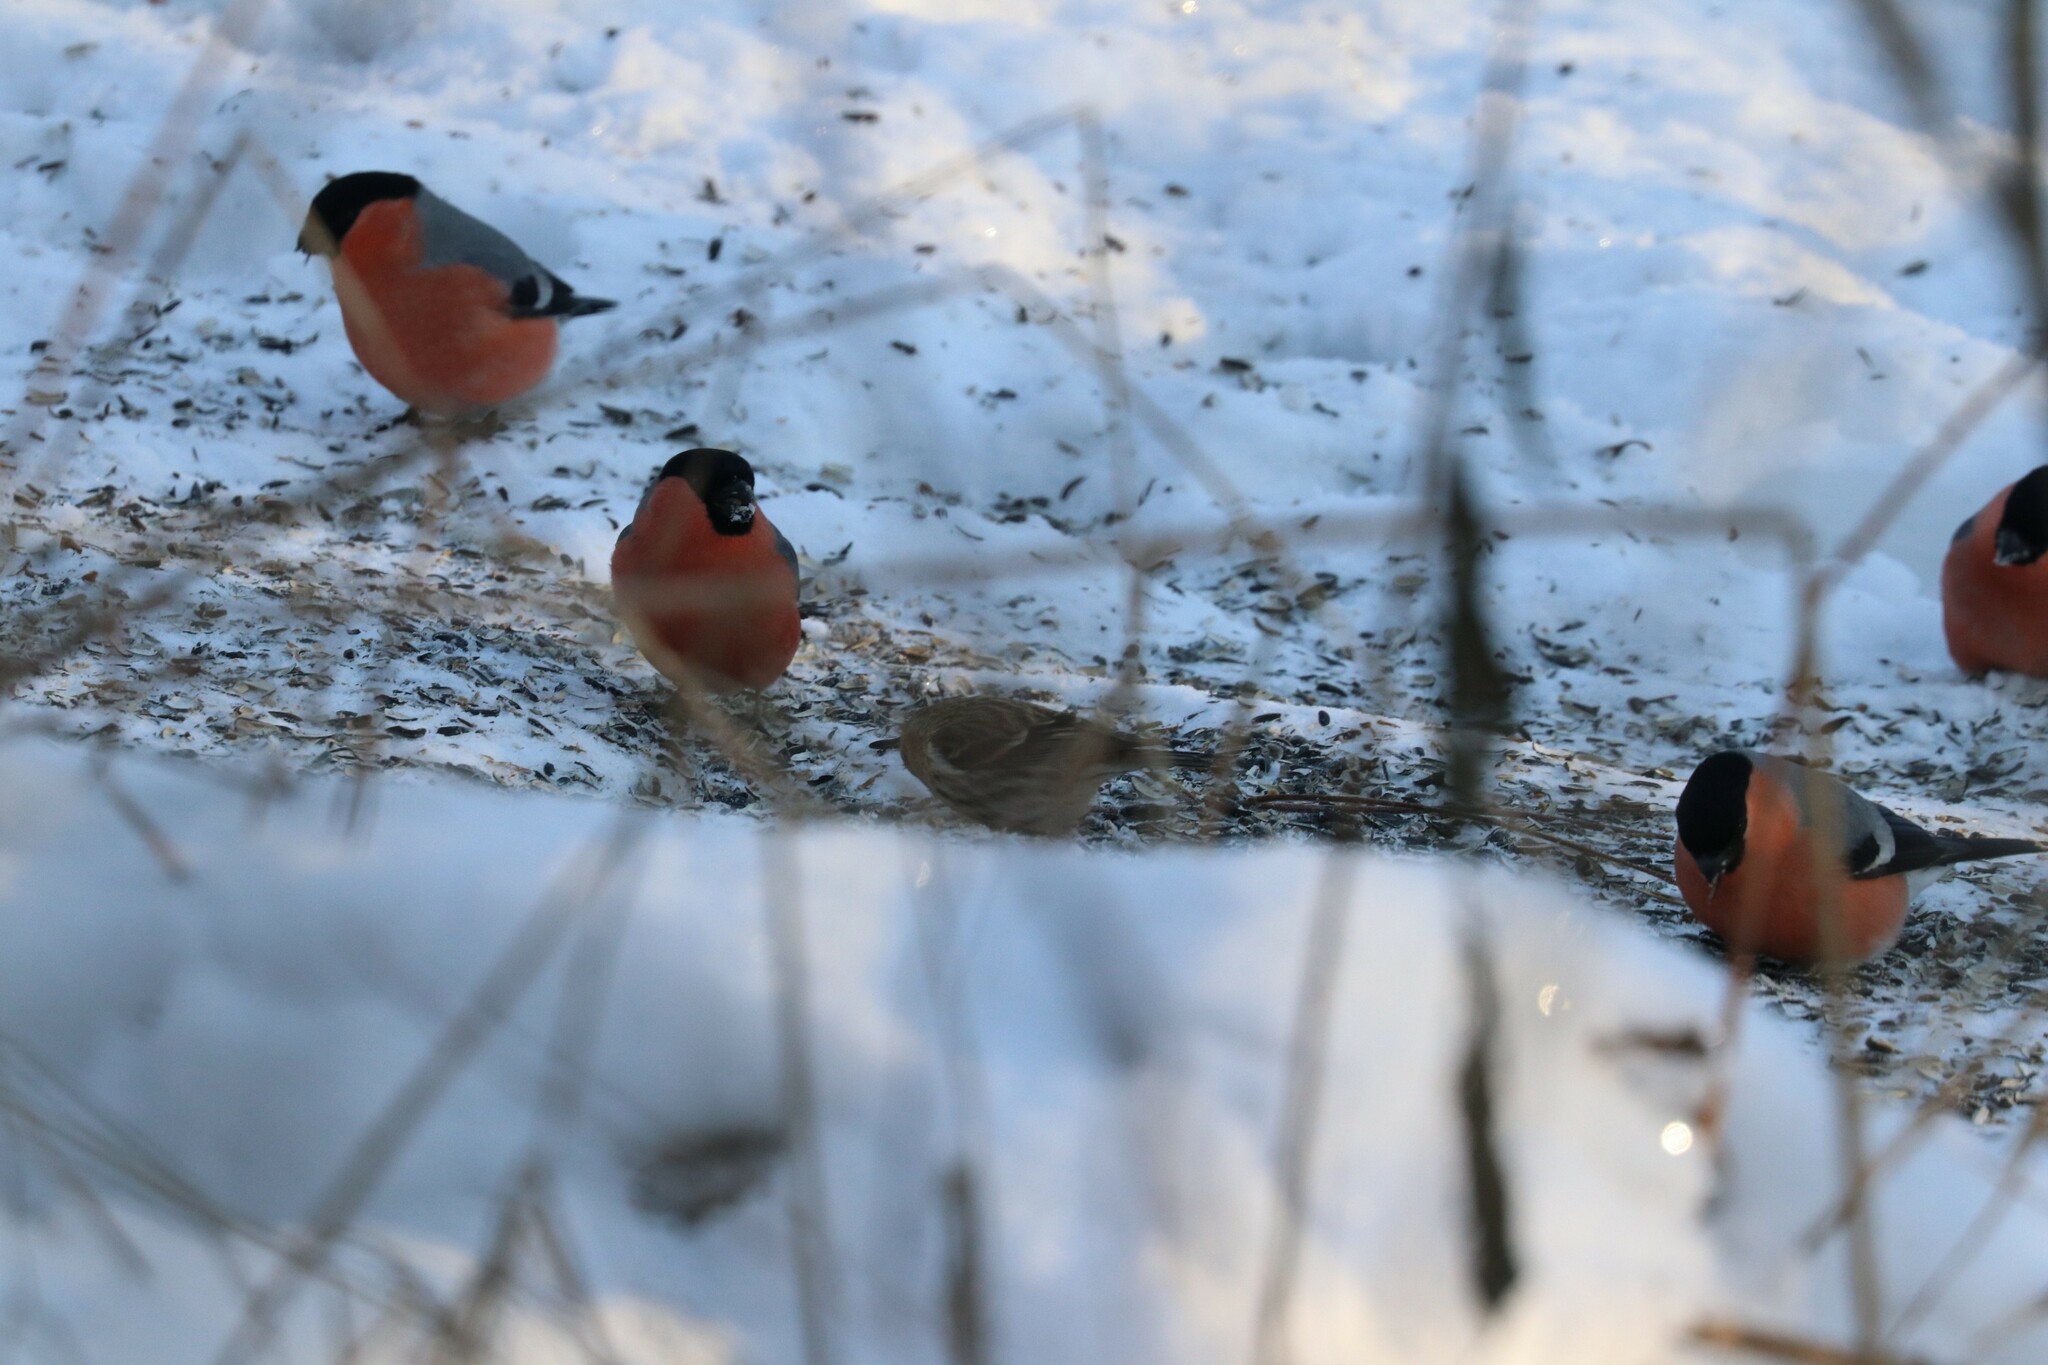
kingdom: Animalia
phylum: Chordata
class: Aves
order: Passeriformes
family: Fringillidae
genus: Pyrrhula
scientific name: Pyrrhula pyrrhula
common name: Eurasian bullfinch
